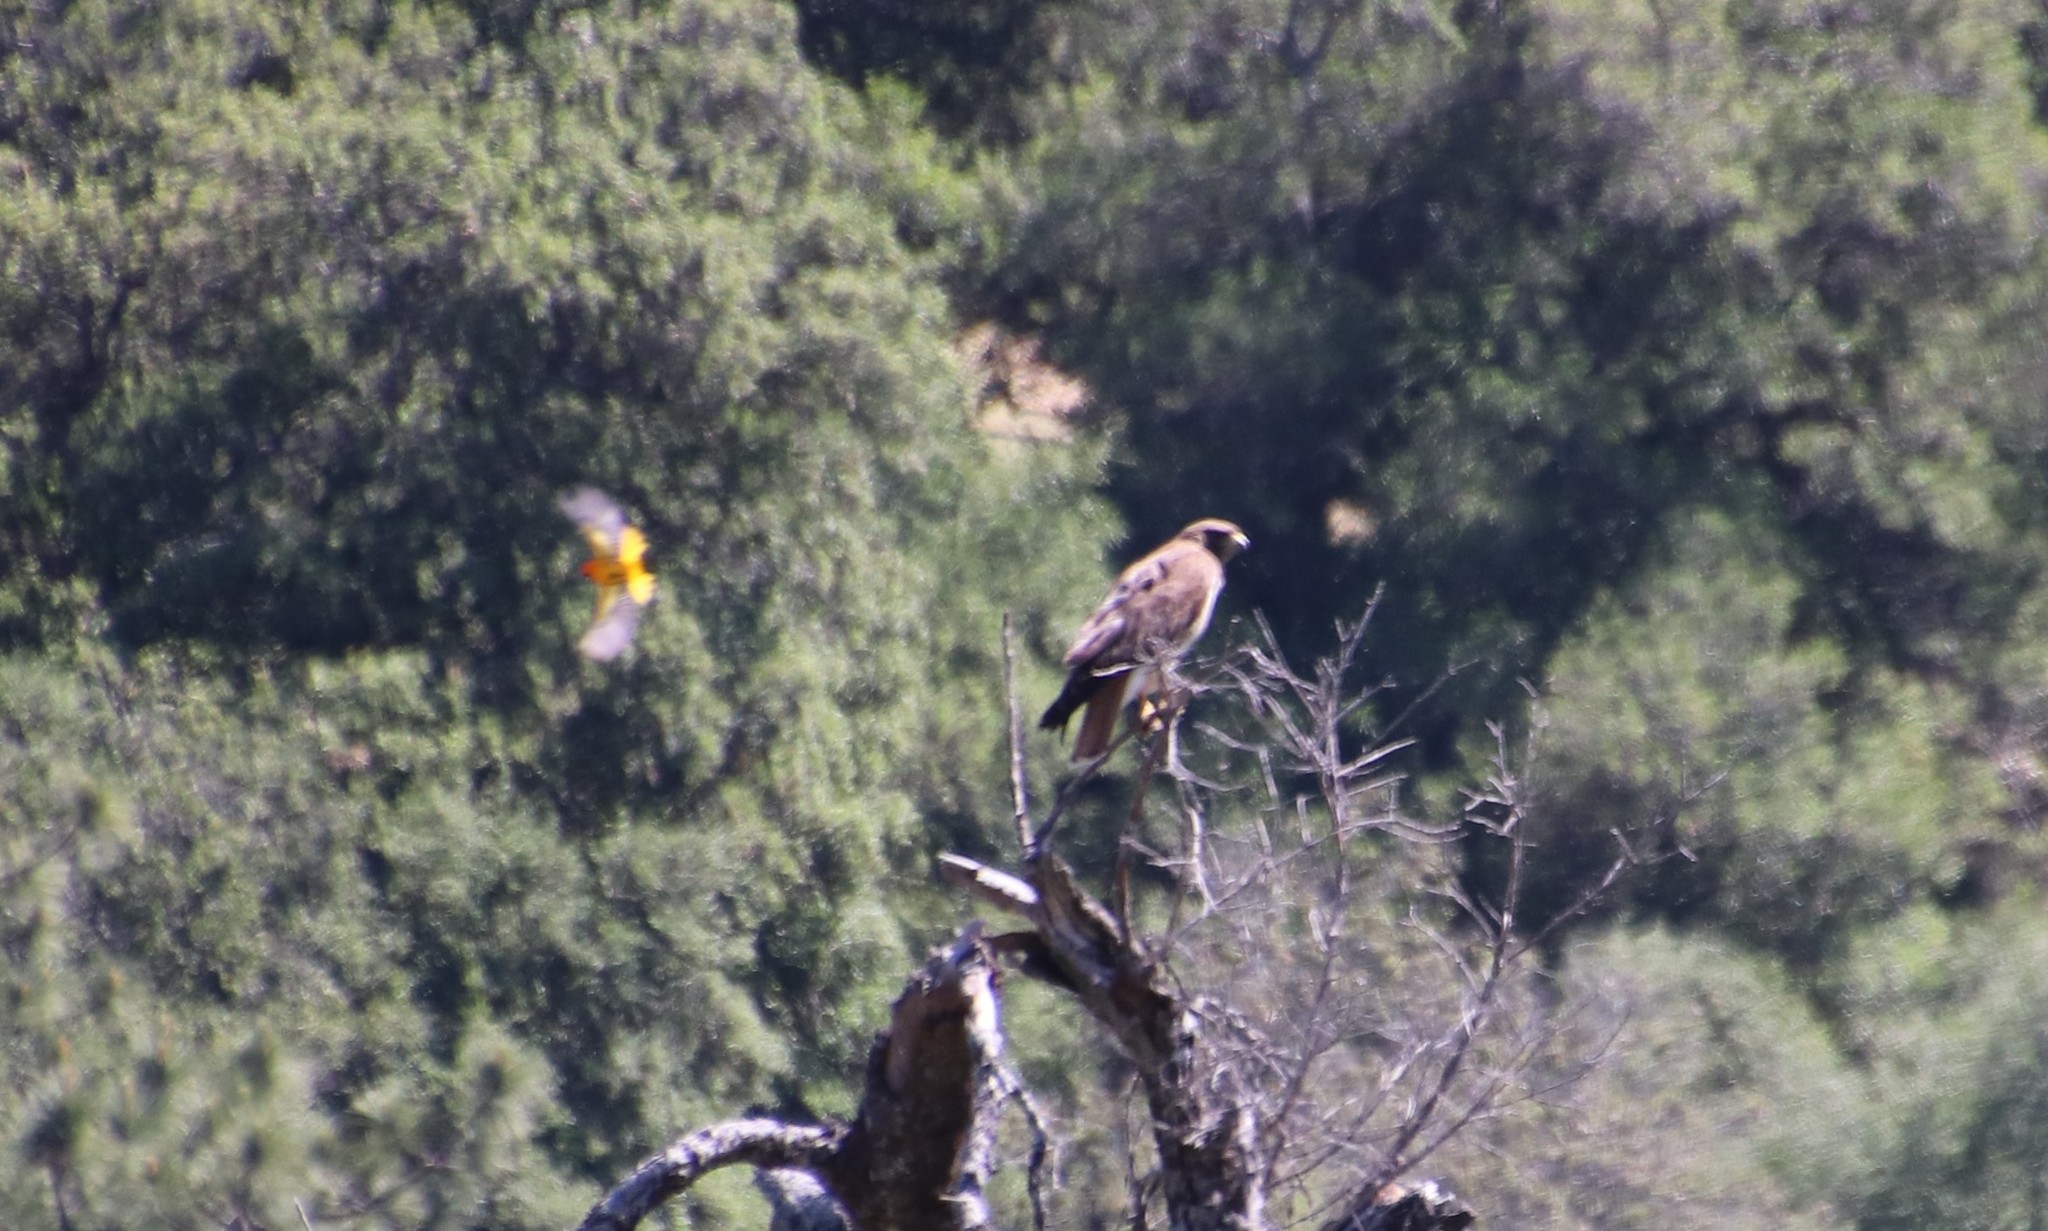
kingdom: Animalia
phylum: Chordata
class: Aves
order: Accipitriformes
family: Accipitridae
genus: Buteo
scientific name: Buteo jamaicensis
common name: Red-tailed hawk
